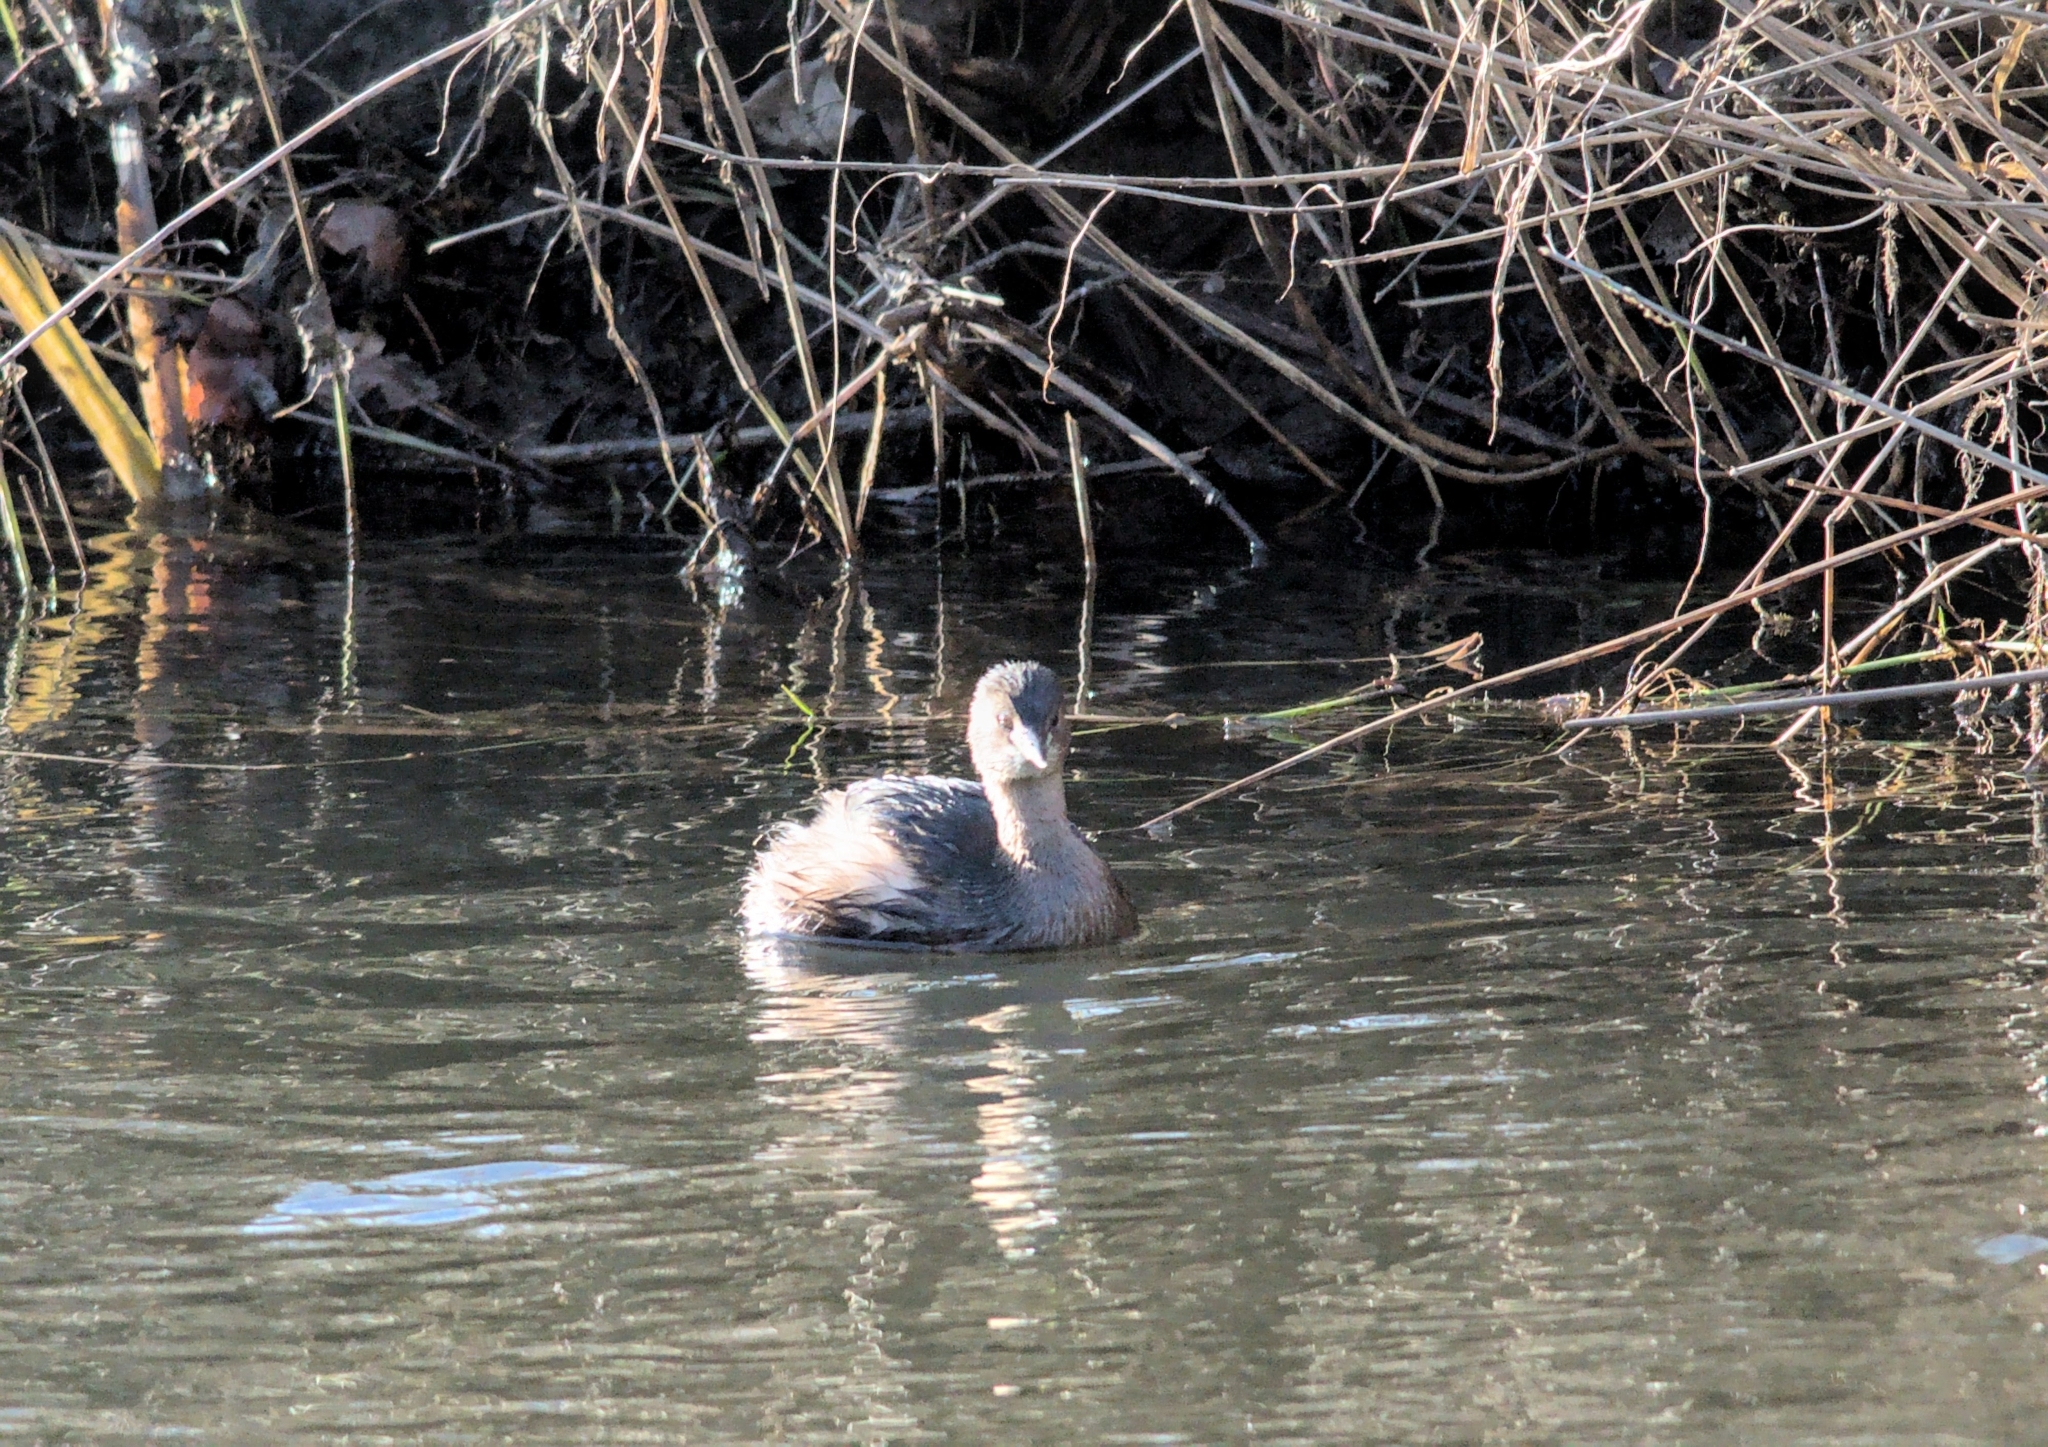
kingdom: Animalia
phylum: Chordata
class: Aves
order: Podicipediformes
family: Podicipedidae
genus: Tachybaptus
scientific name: Tachybaptus ruficollis
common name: Little grebe
